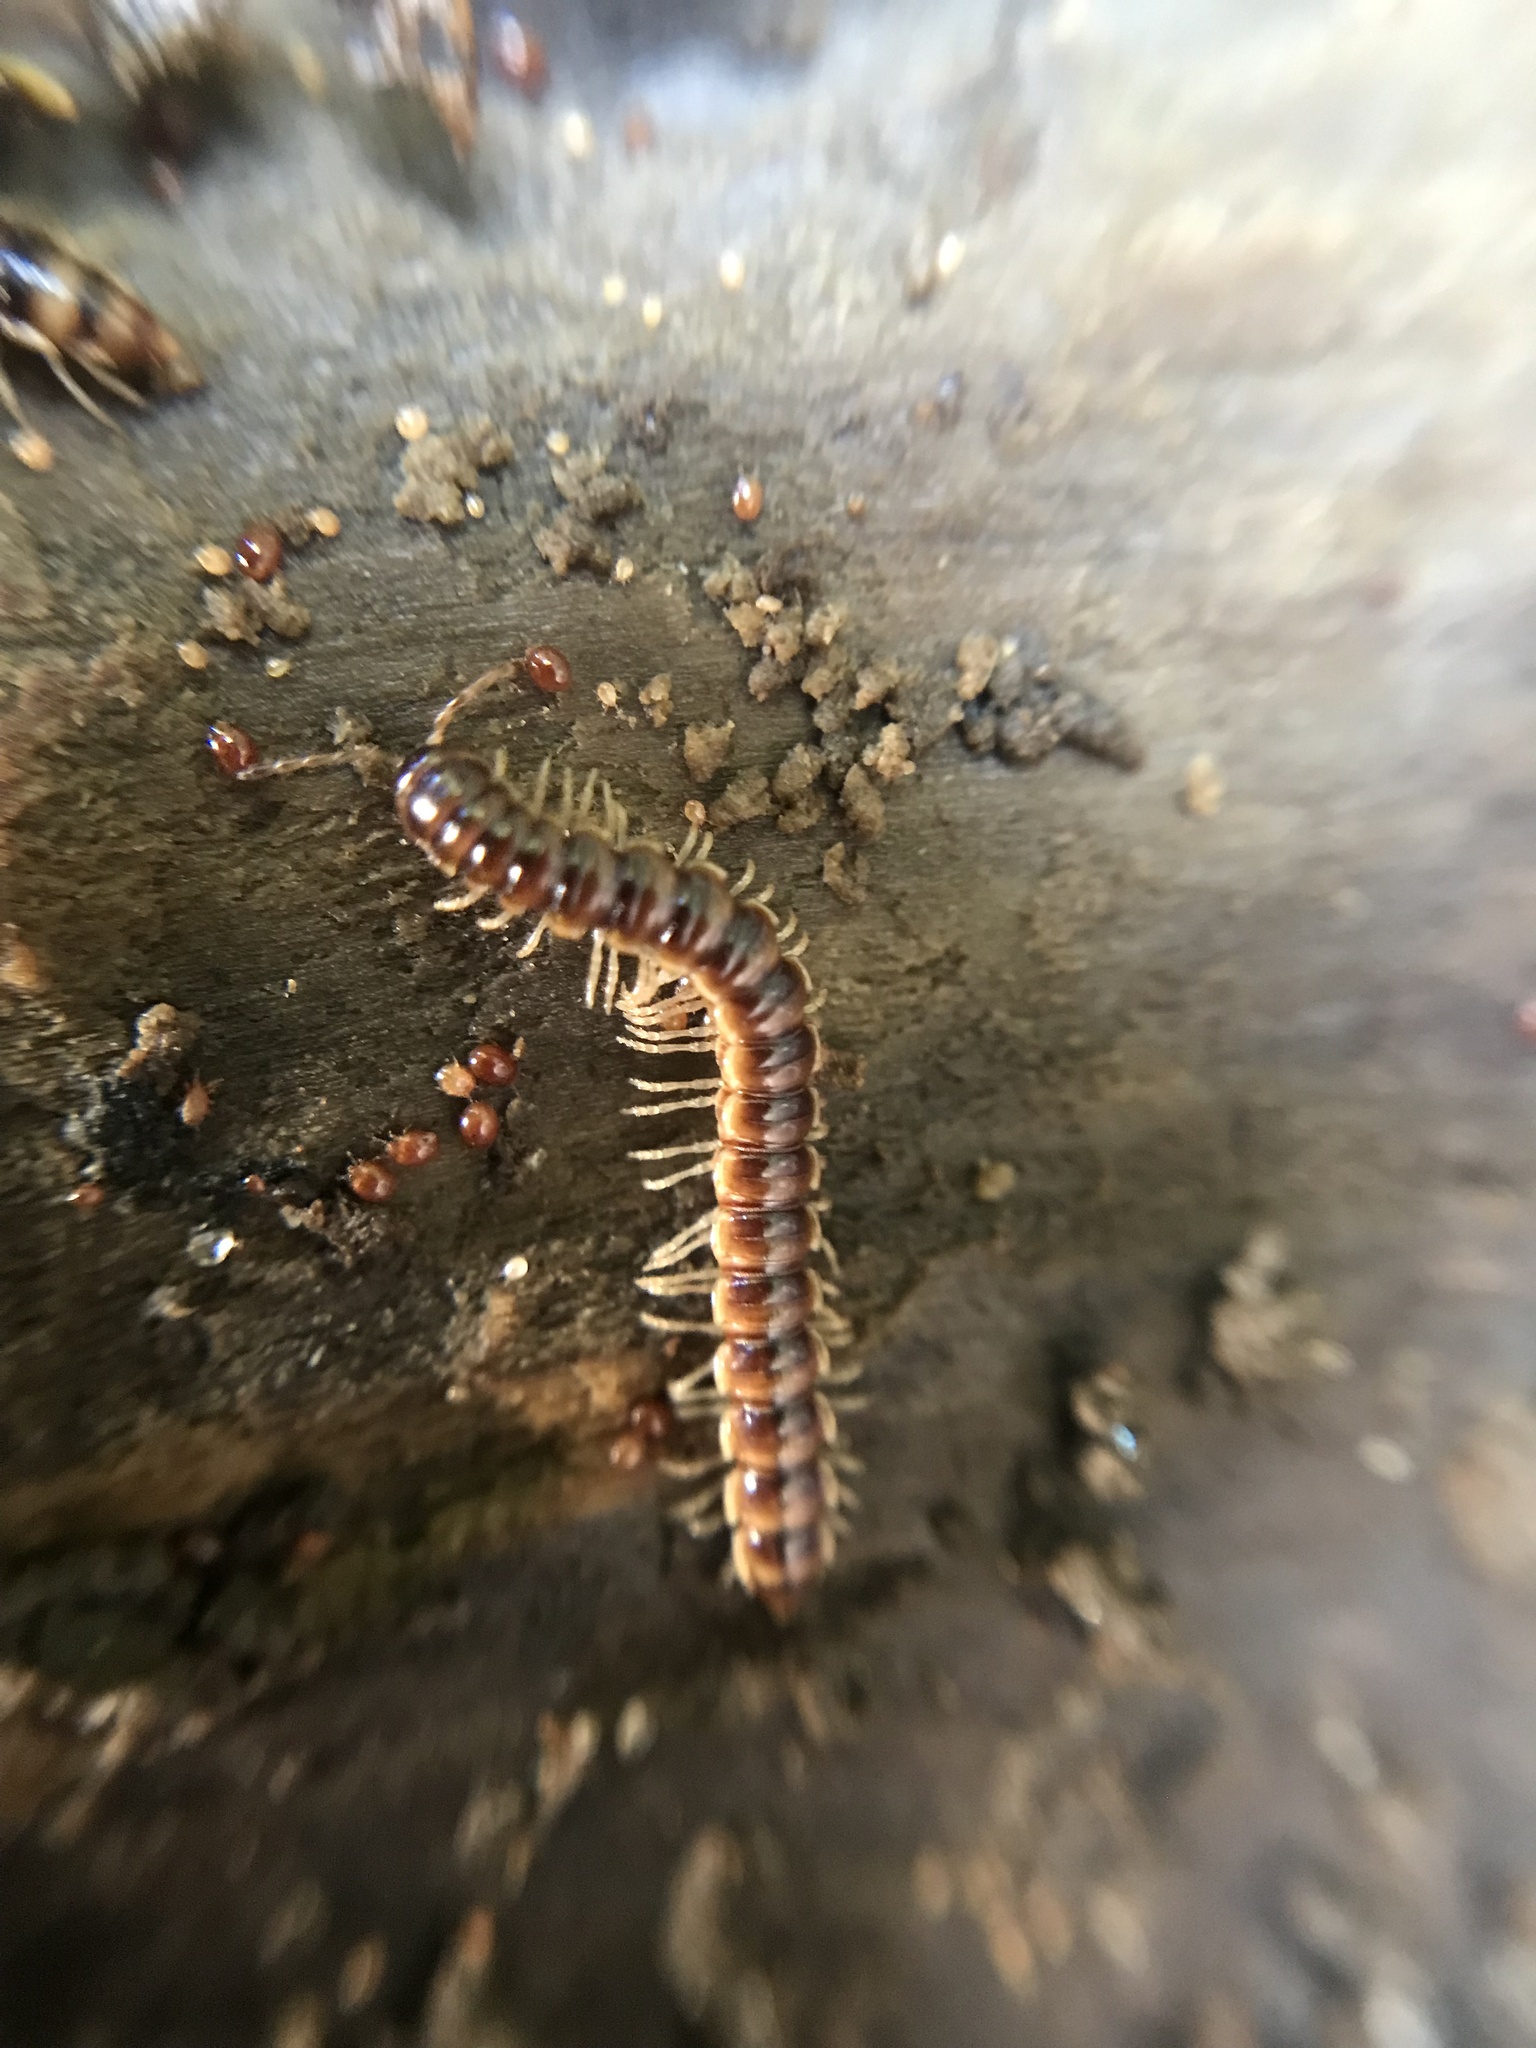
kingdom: Animalia
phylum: Arthropoda
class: Diplopoda
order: Polydesmida
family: Paradoxosomatidae
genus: Oxidus
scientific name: Oxidus gracilis
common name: Greenhouse millipede
